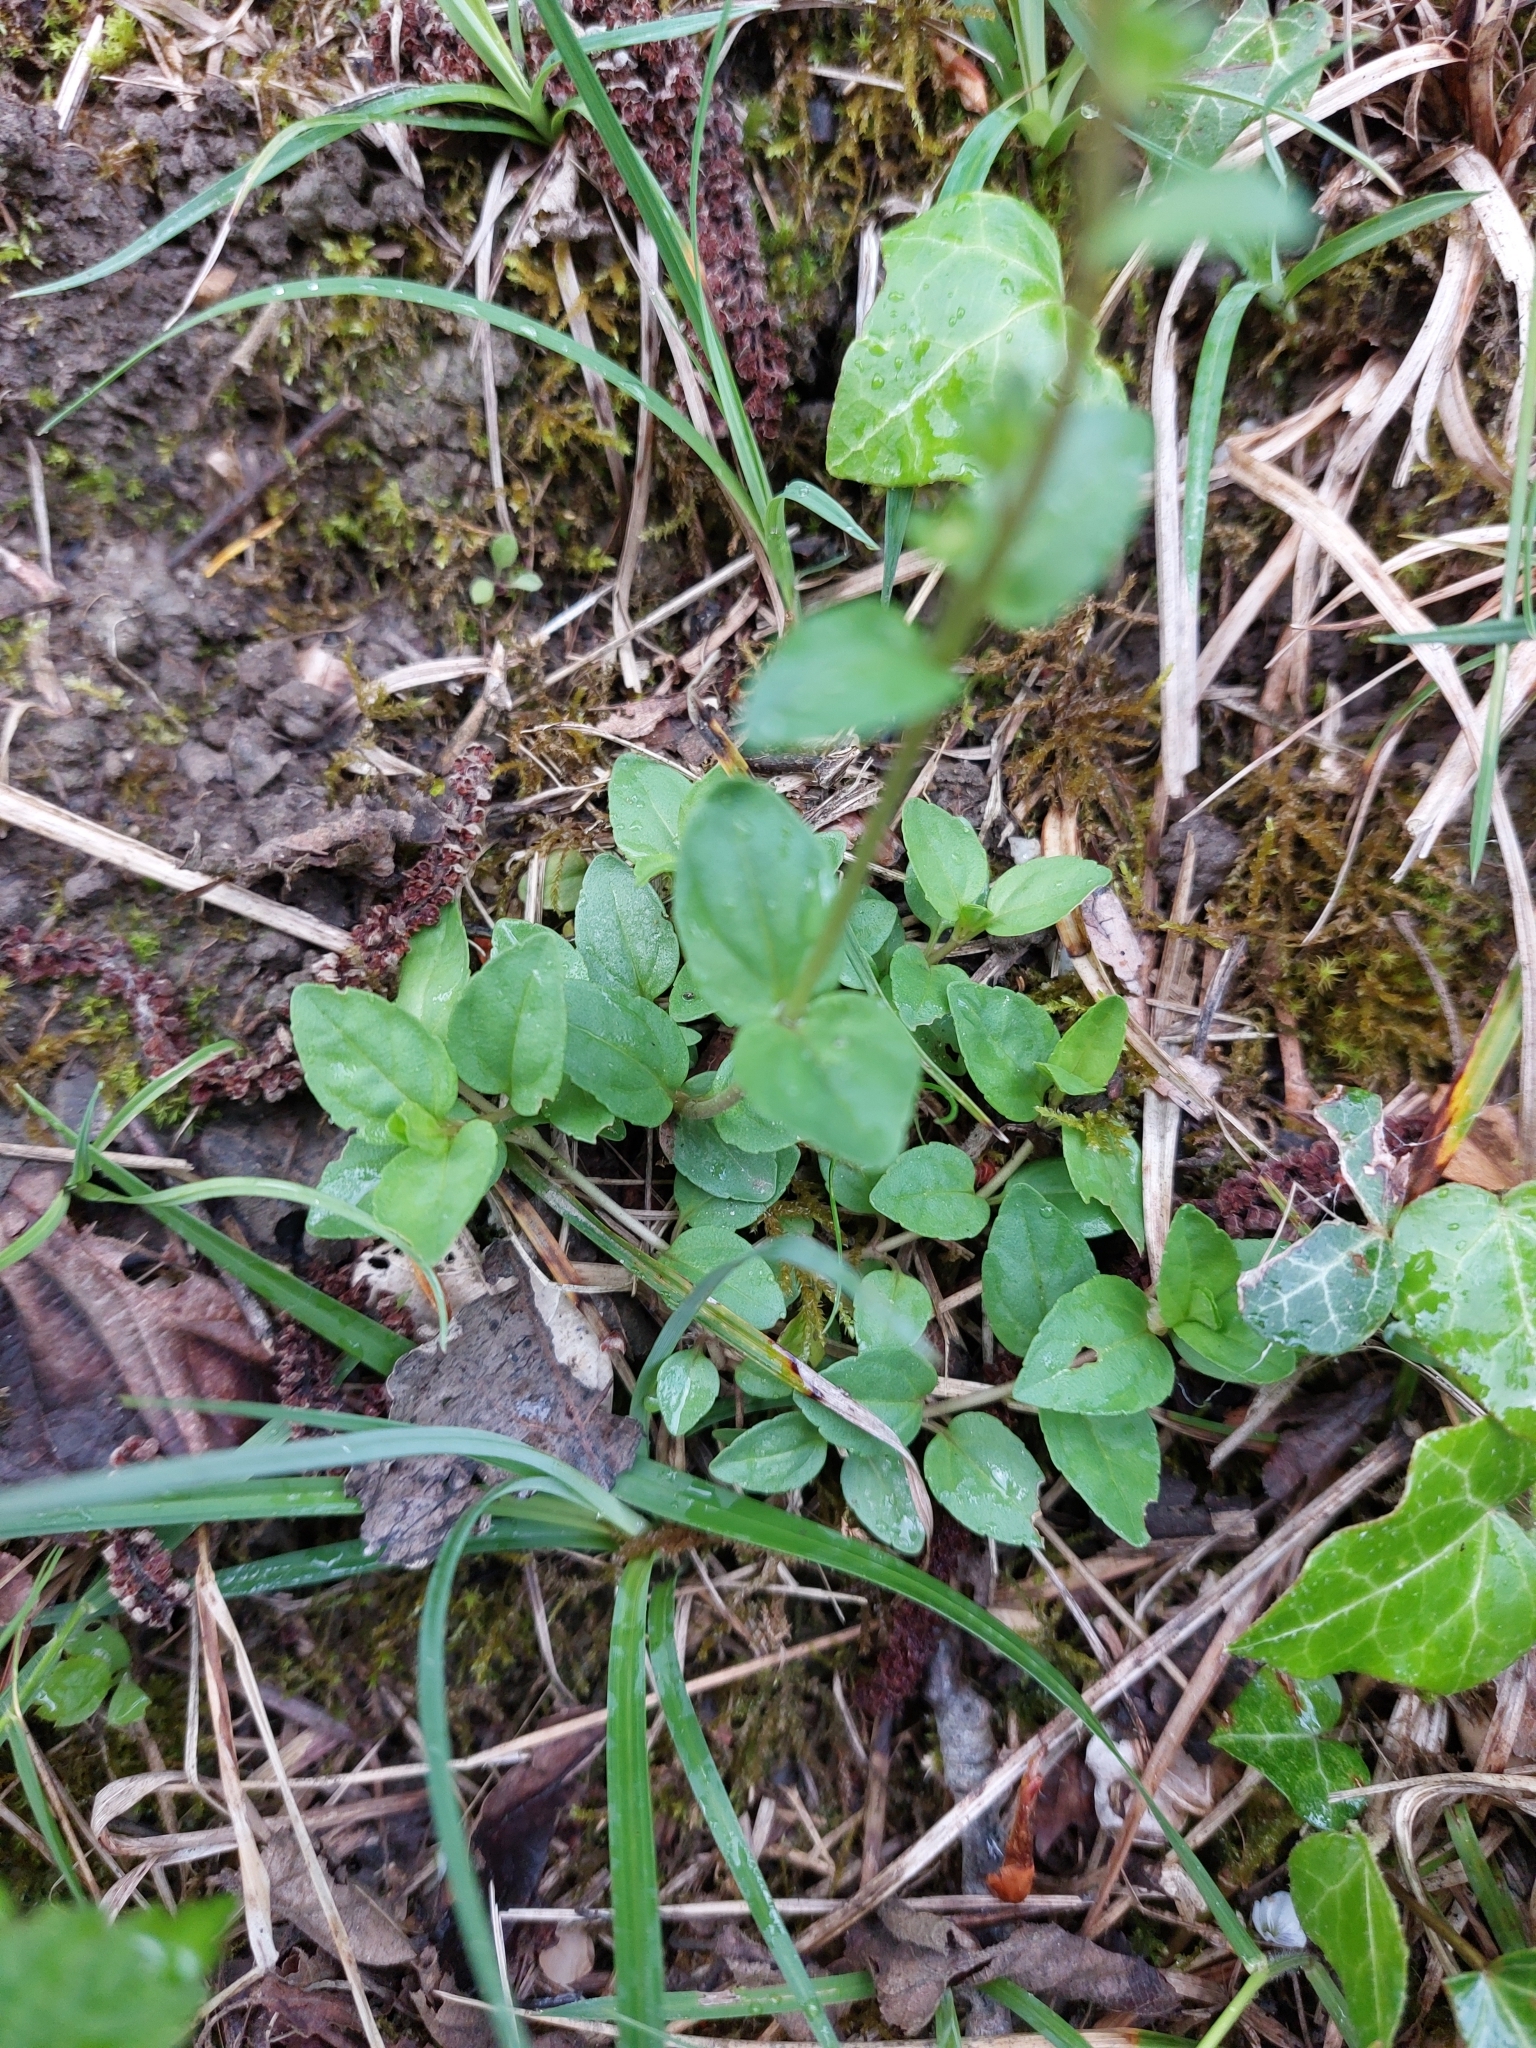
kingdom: Plantae
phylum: Tracheophyta
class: Magnoliopsida
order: Lamiales
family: Plantaginaceae
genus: Veronica
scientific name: Veronica serpyllifolia
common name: Thyme-leaved speedwell
